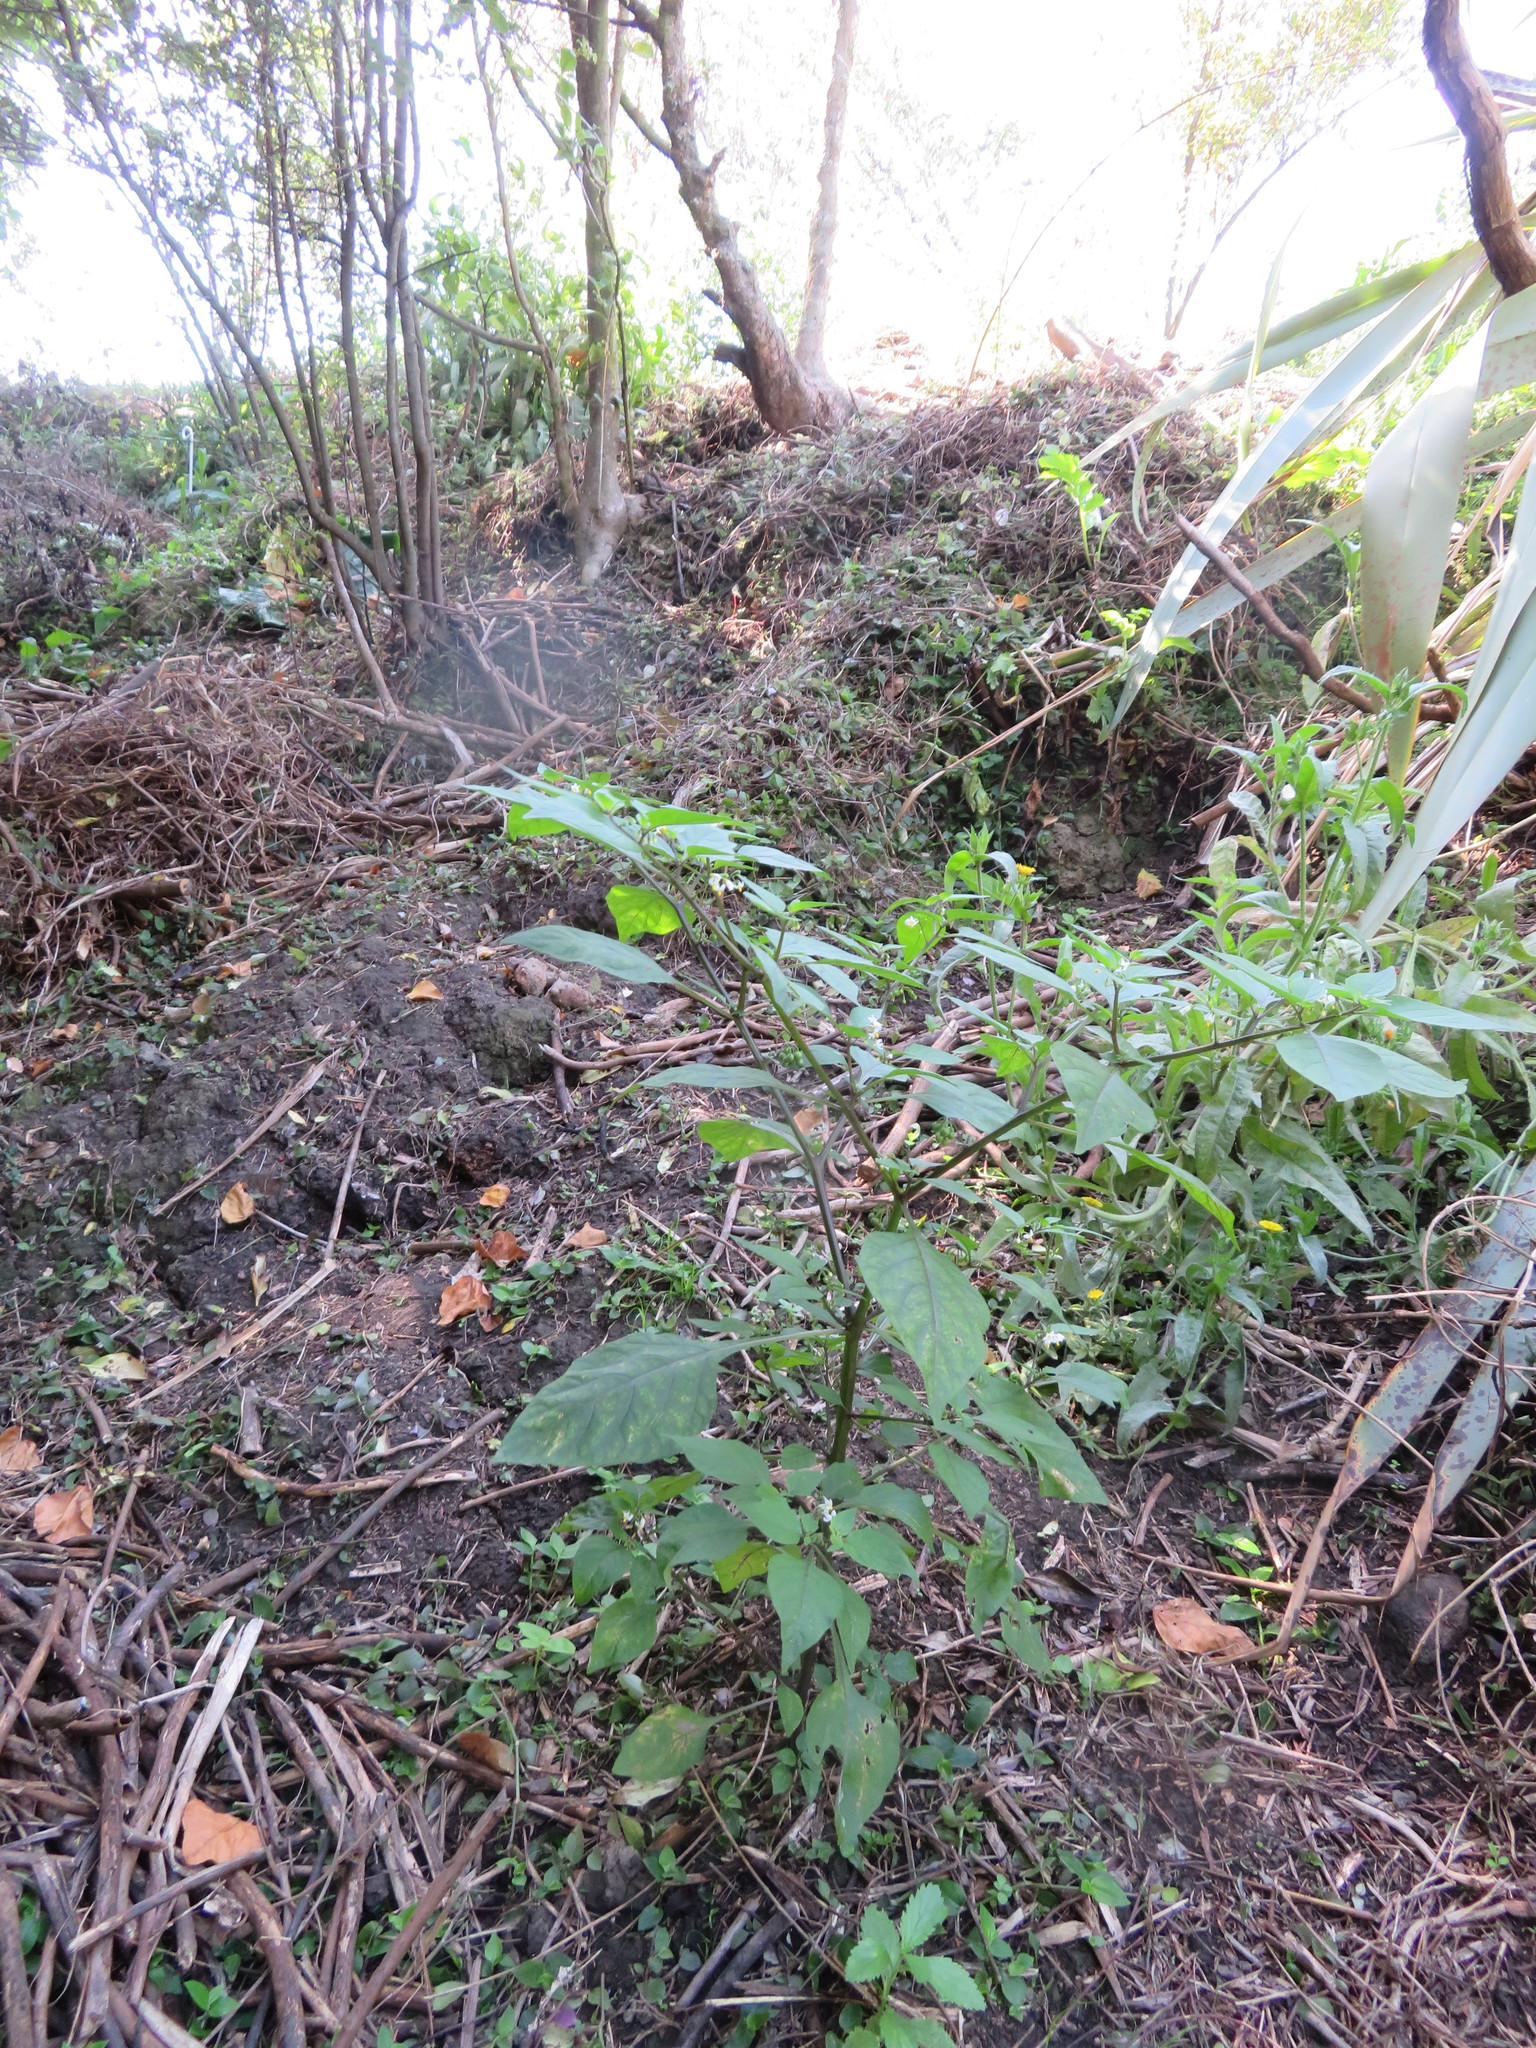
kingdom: Plantae
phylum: Tracheophyta
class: Liliopsida
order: Commelinales
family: Commelinaceae
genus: Tradescantia
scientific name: Tradescantia fluminensis
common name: Wandering-jew
